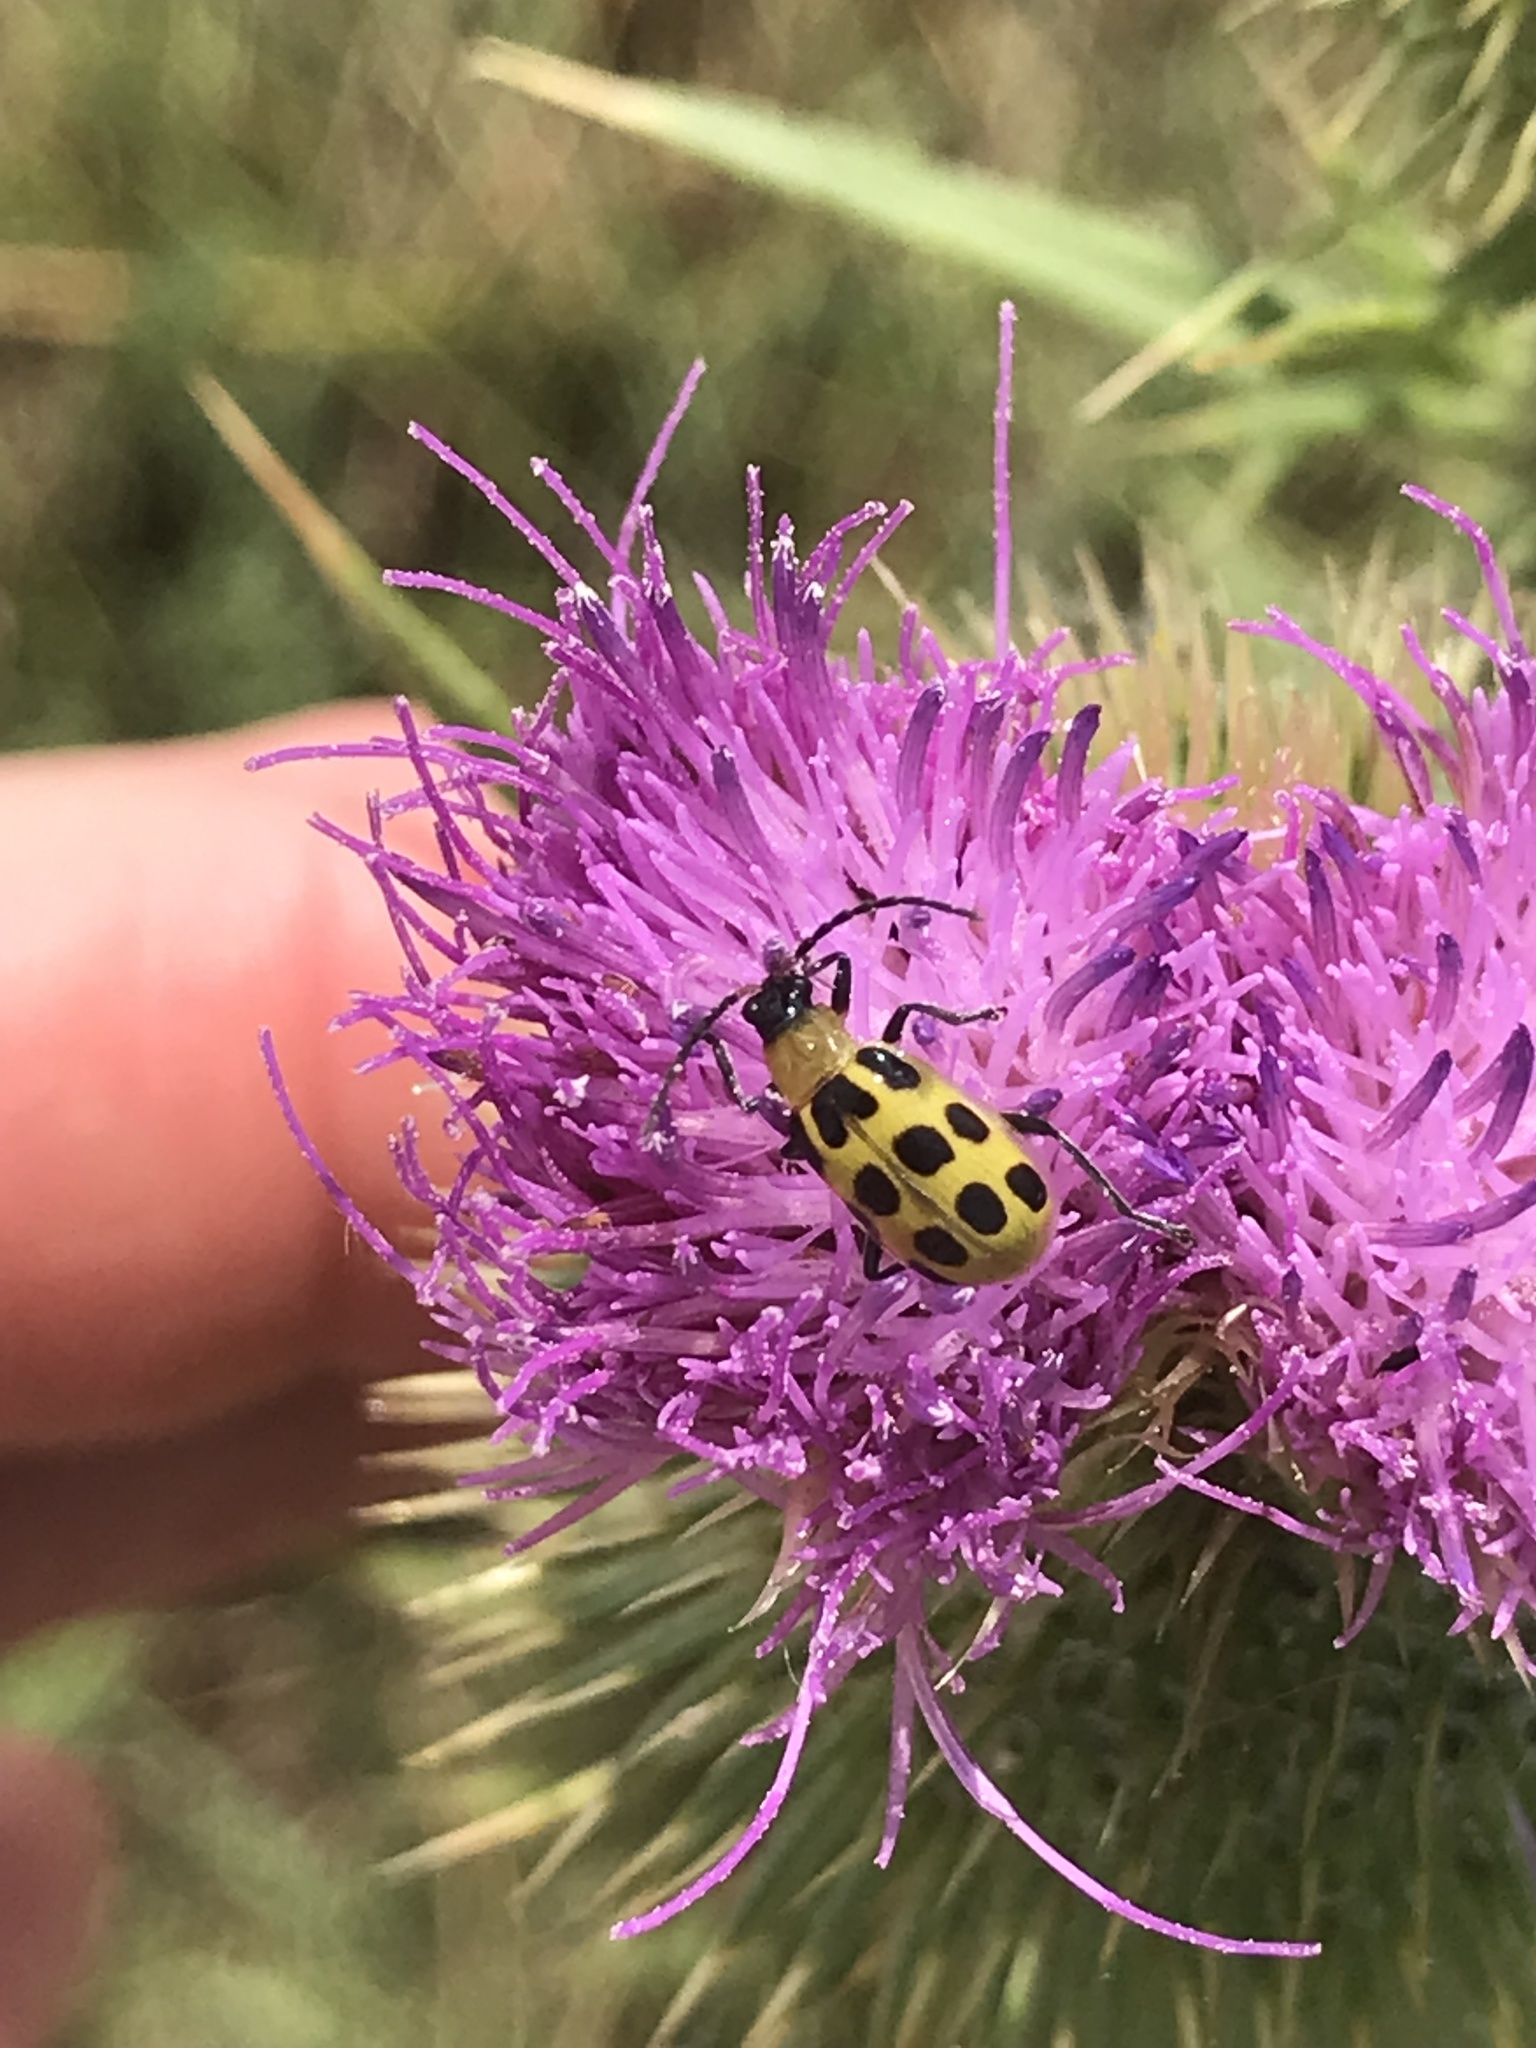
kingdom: Animalia
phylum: Arthropoda
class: Insecta
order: Coleoptera
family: Chrysomelidae
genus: Diabrotica
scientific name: Diabrotica undecimpunctata
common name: Spotted cucumber beetle
